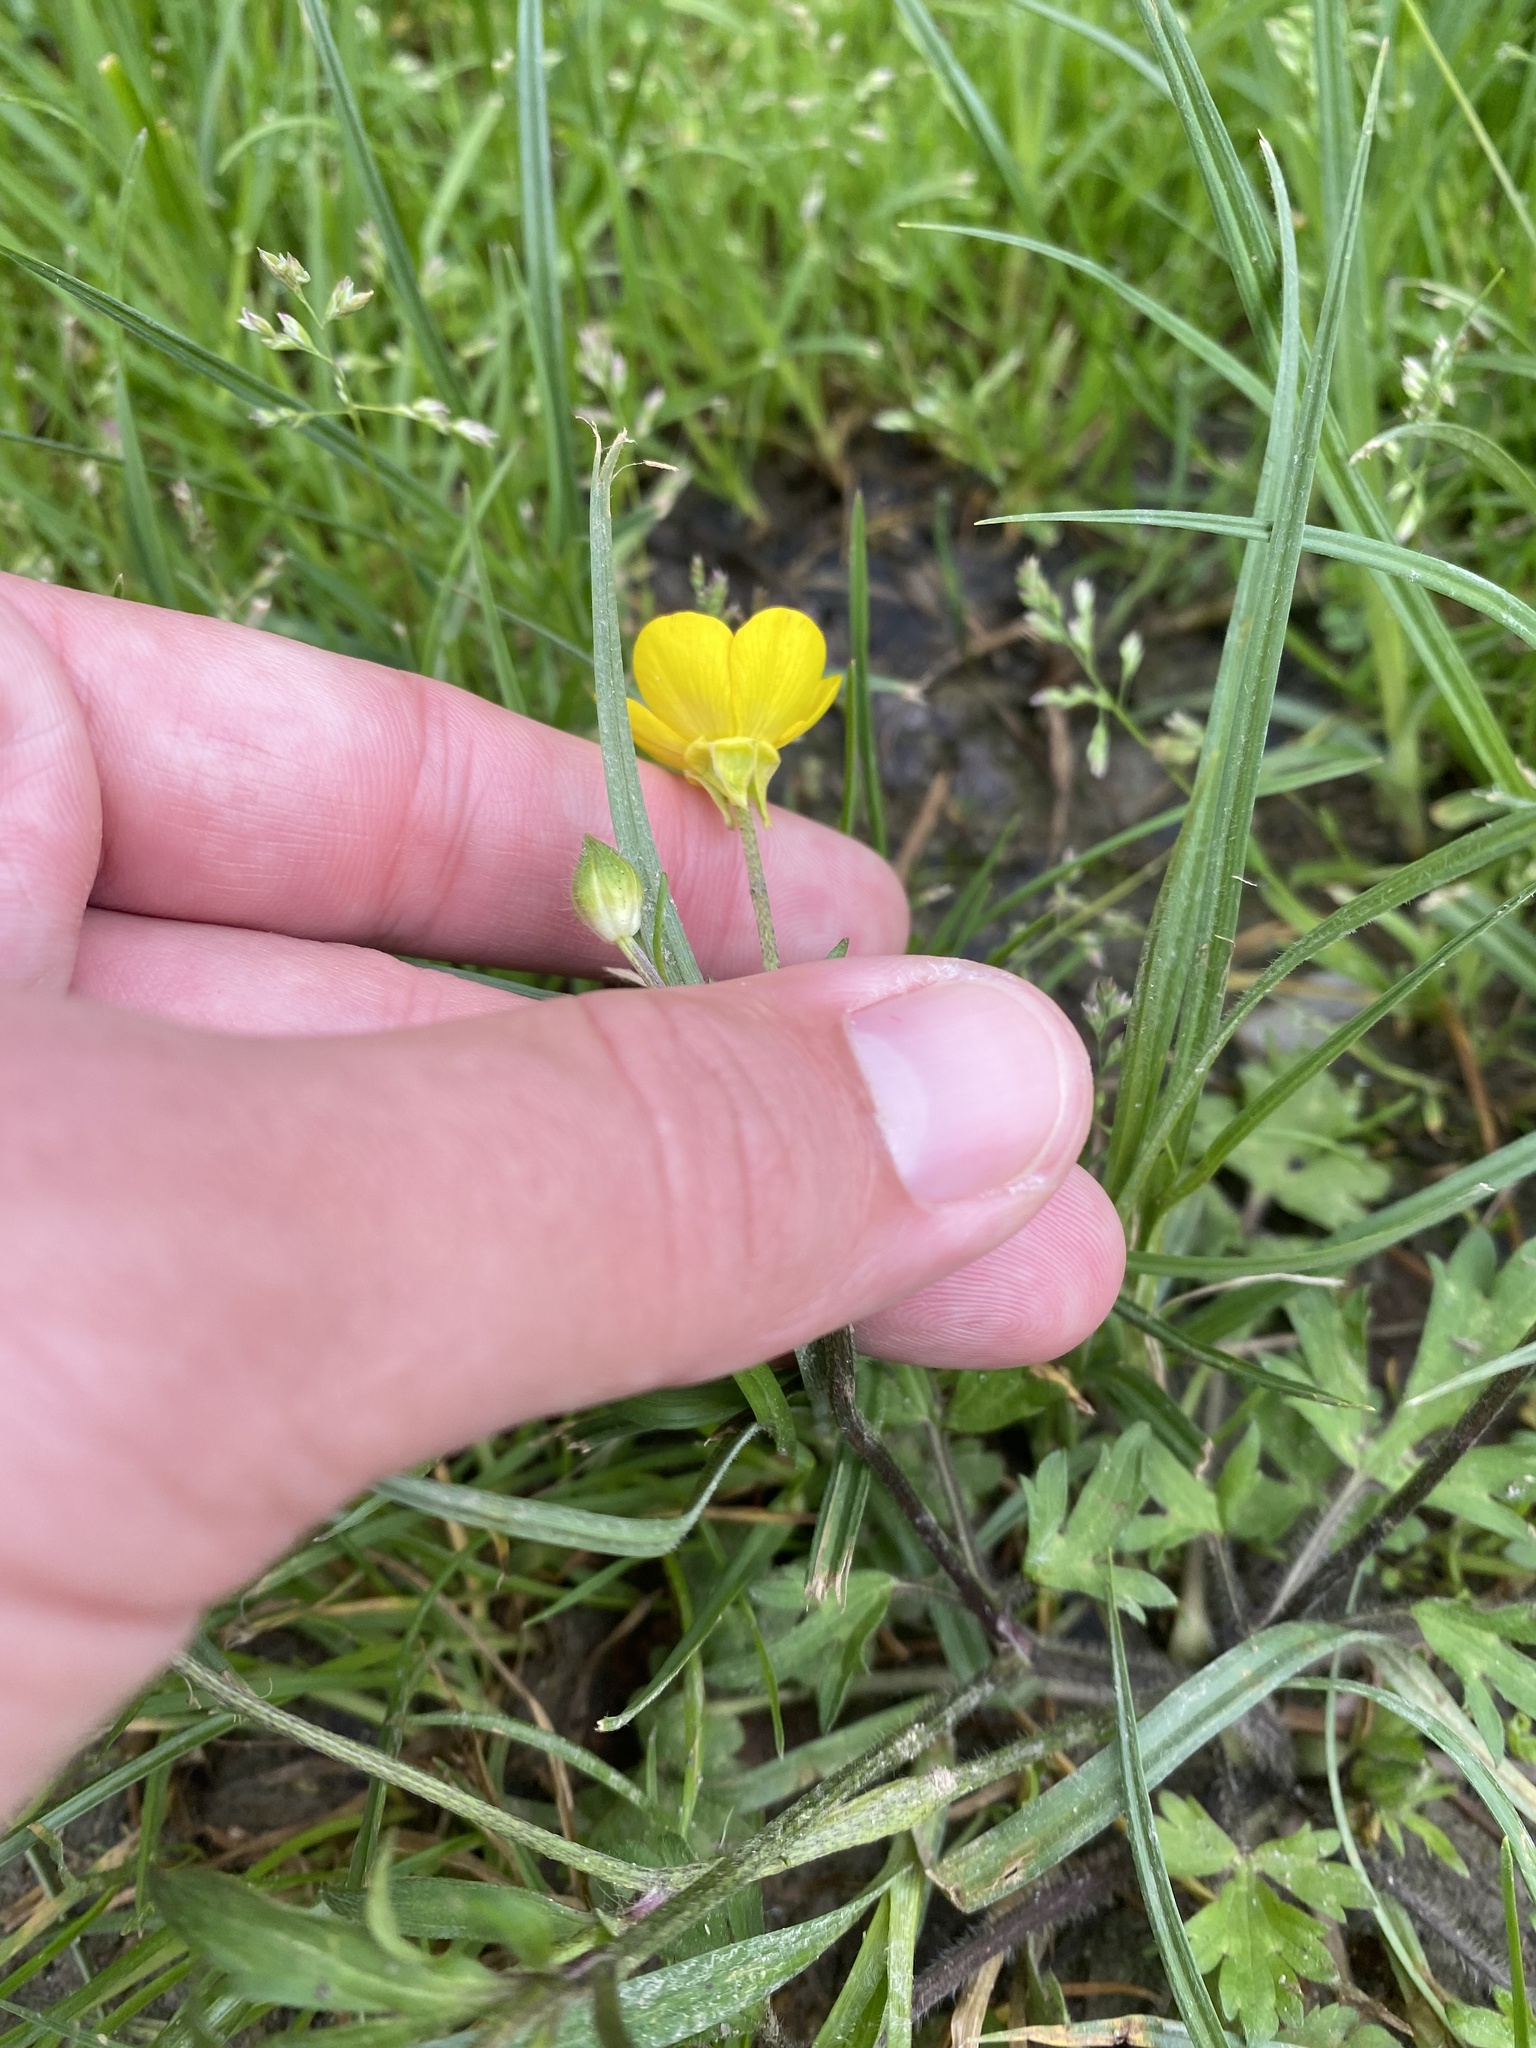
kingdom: Plantae
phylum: Tracheophyta
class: Magnoliopsida
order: Ranunculales
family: Ranunculaceae
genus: Ranunculus
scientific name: Ranunculus repens
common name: Creeping buttercup
